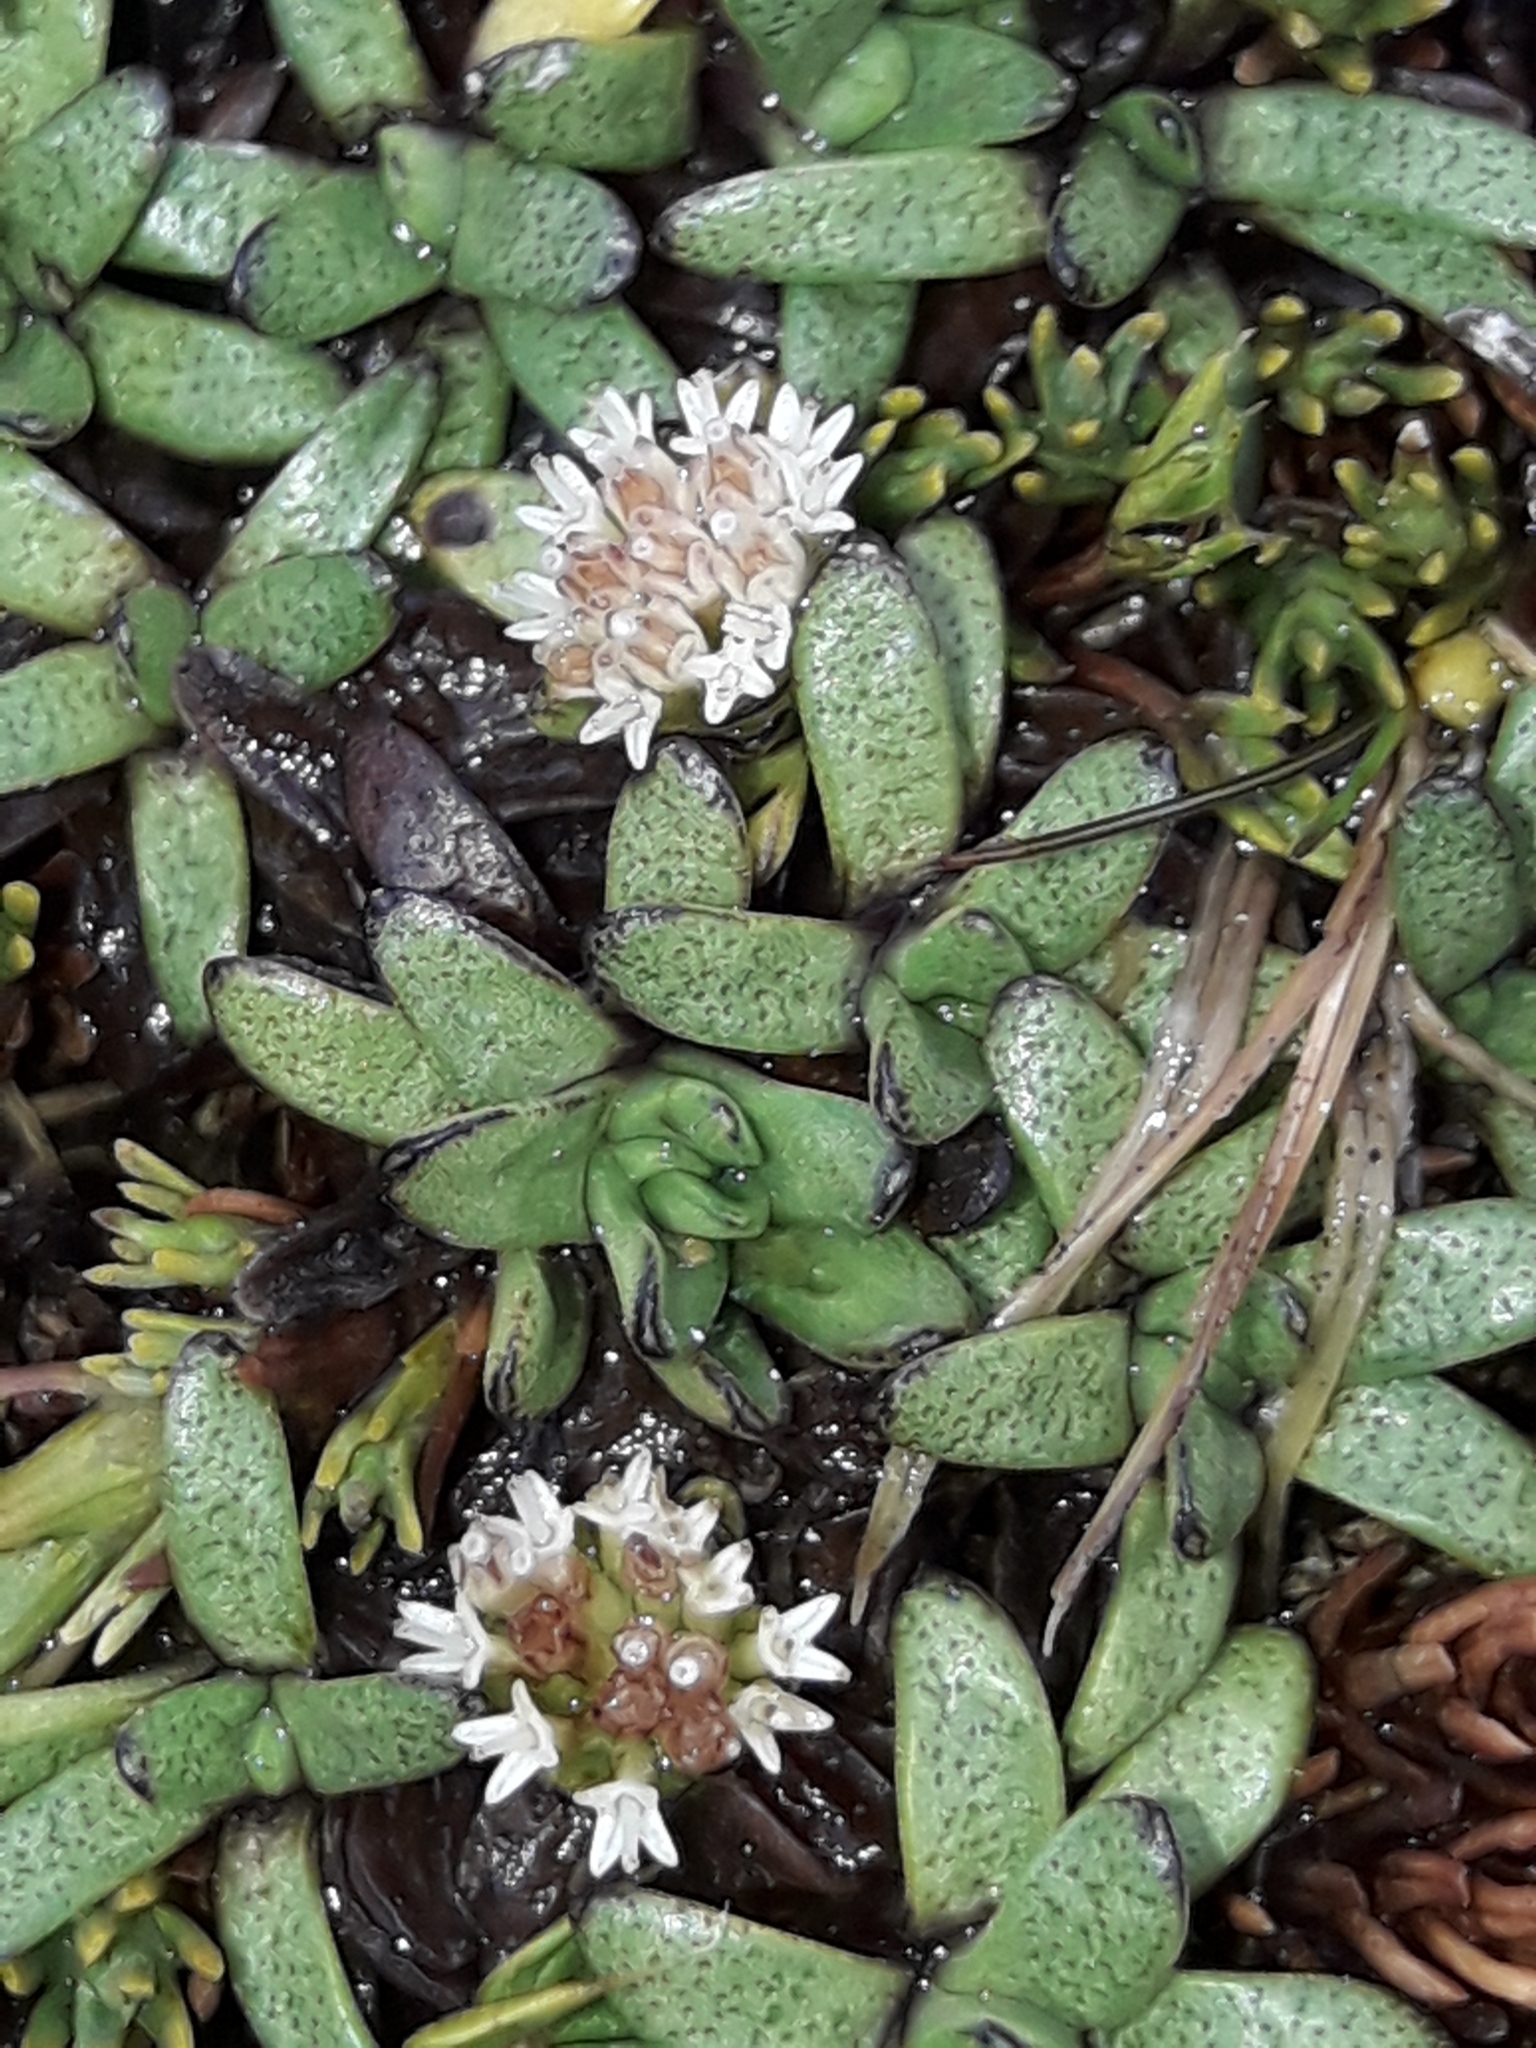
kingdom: Plantae
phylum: Tracheophyta
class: Magnoliopsida
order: Asterales
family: Asteraceae
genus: Abrotanella
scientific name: Abrotanella patearoa
